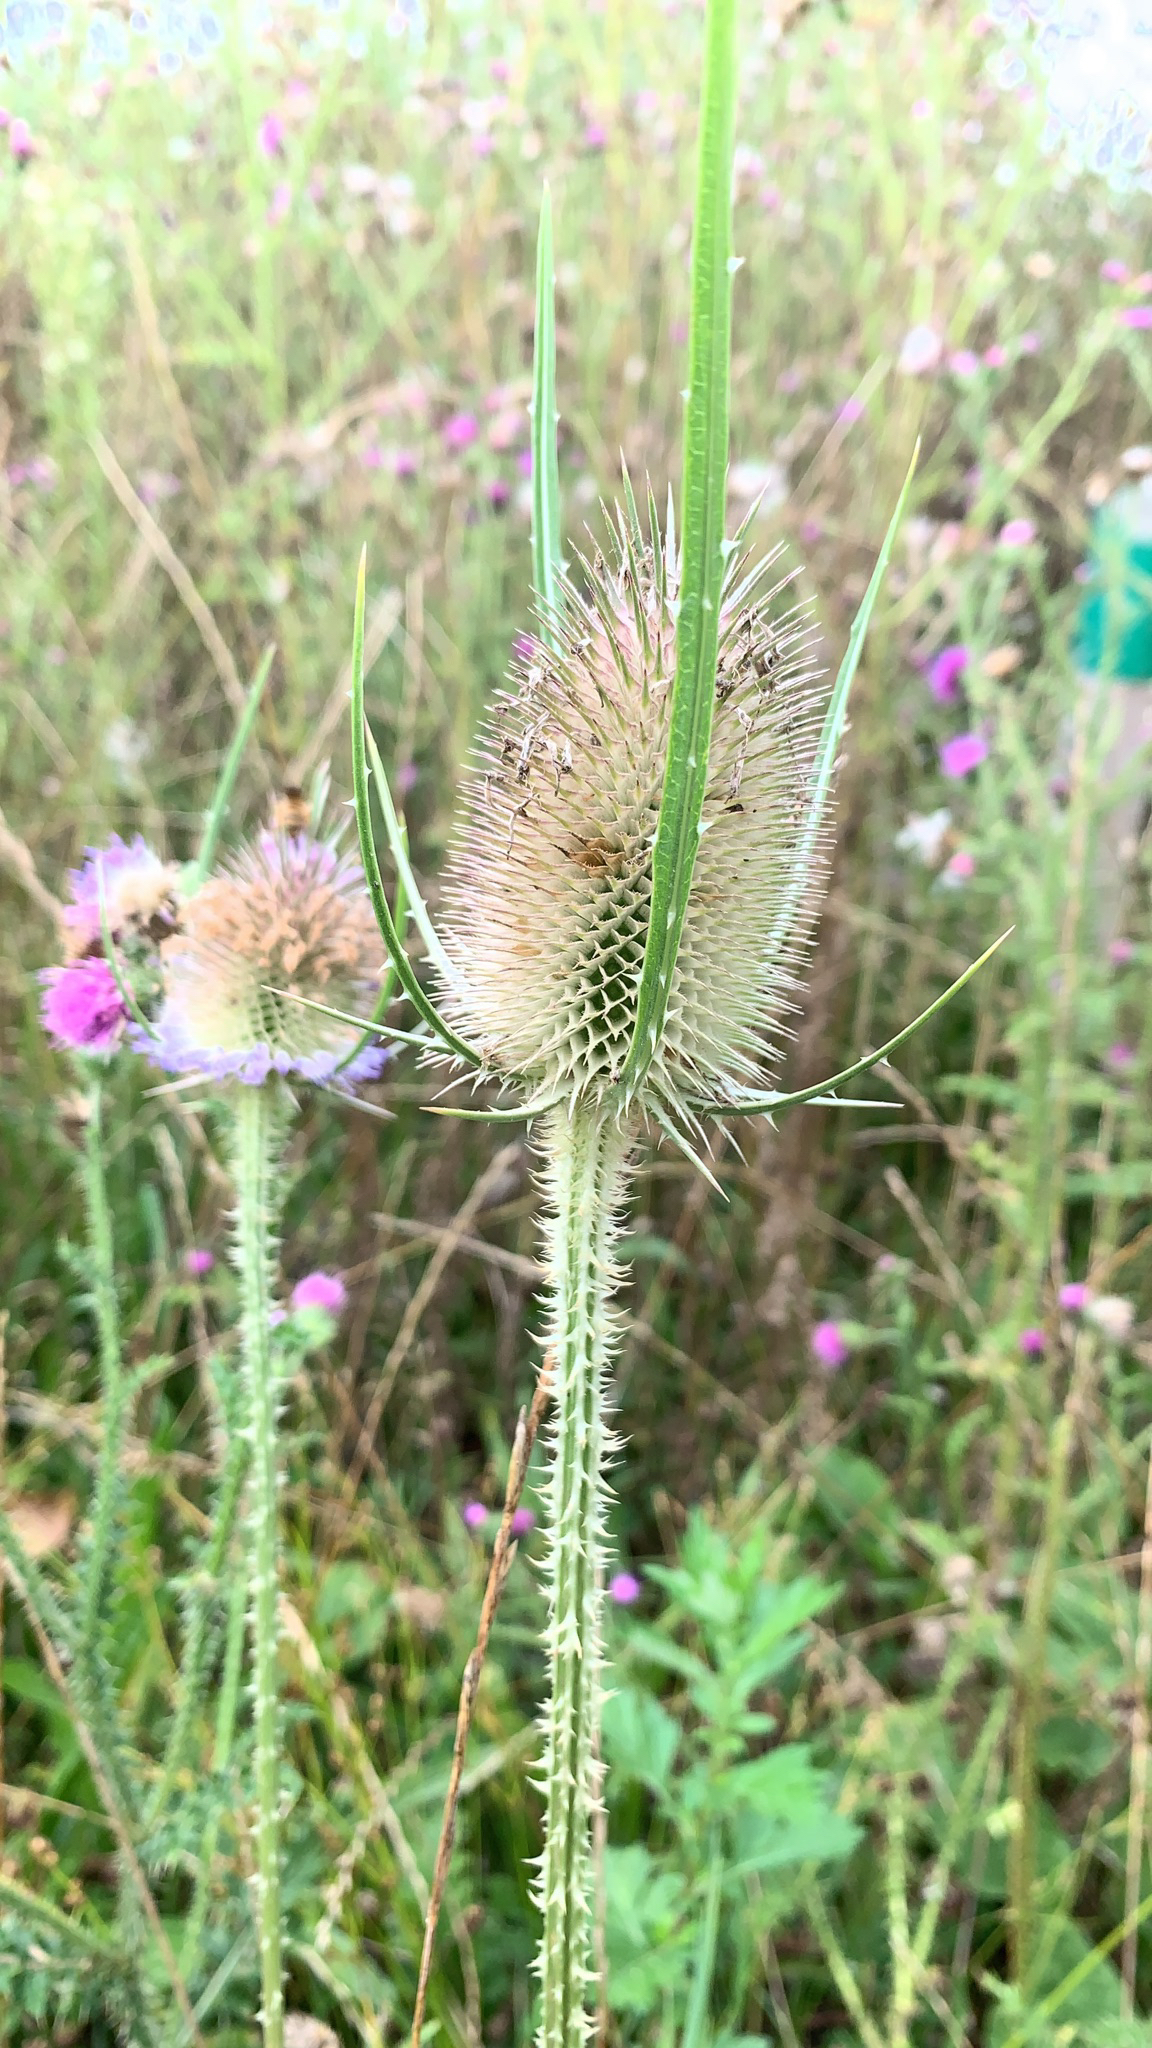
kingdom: Plantae
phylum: Tracheophyta
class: Magnoliopsida
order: Dipsacales
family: Caprifoliaceae
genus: Dipsacus
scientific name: Dipsacus fullonum
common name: Teasel
